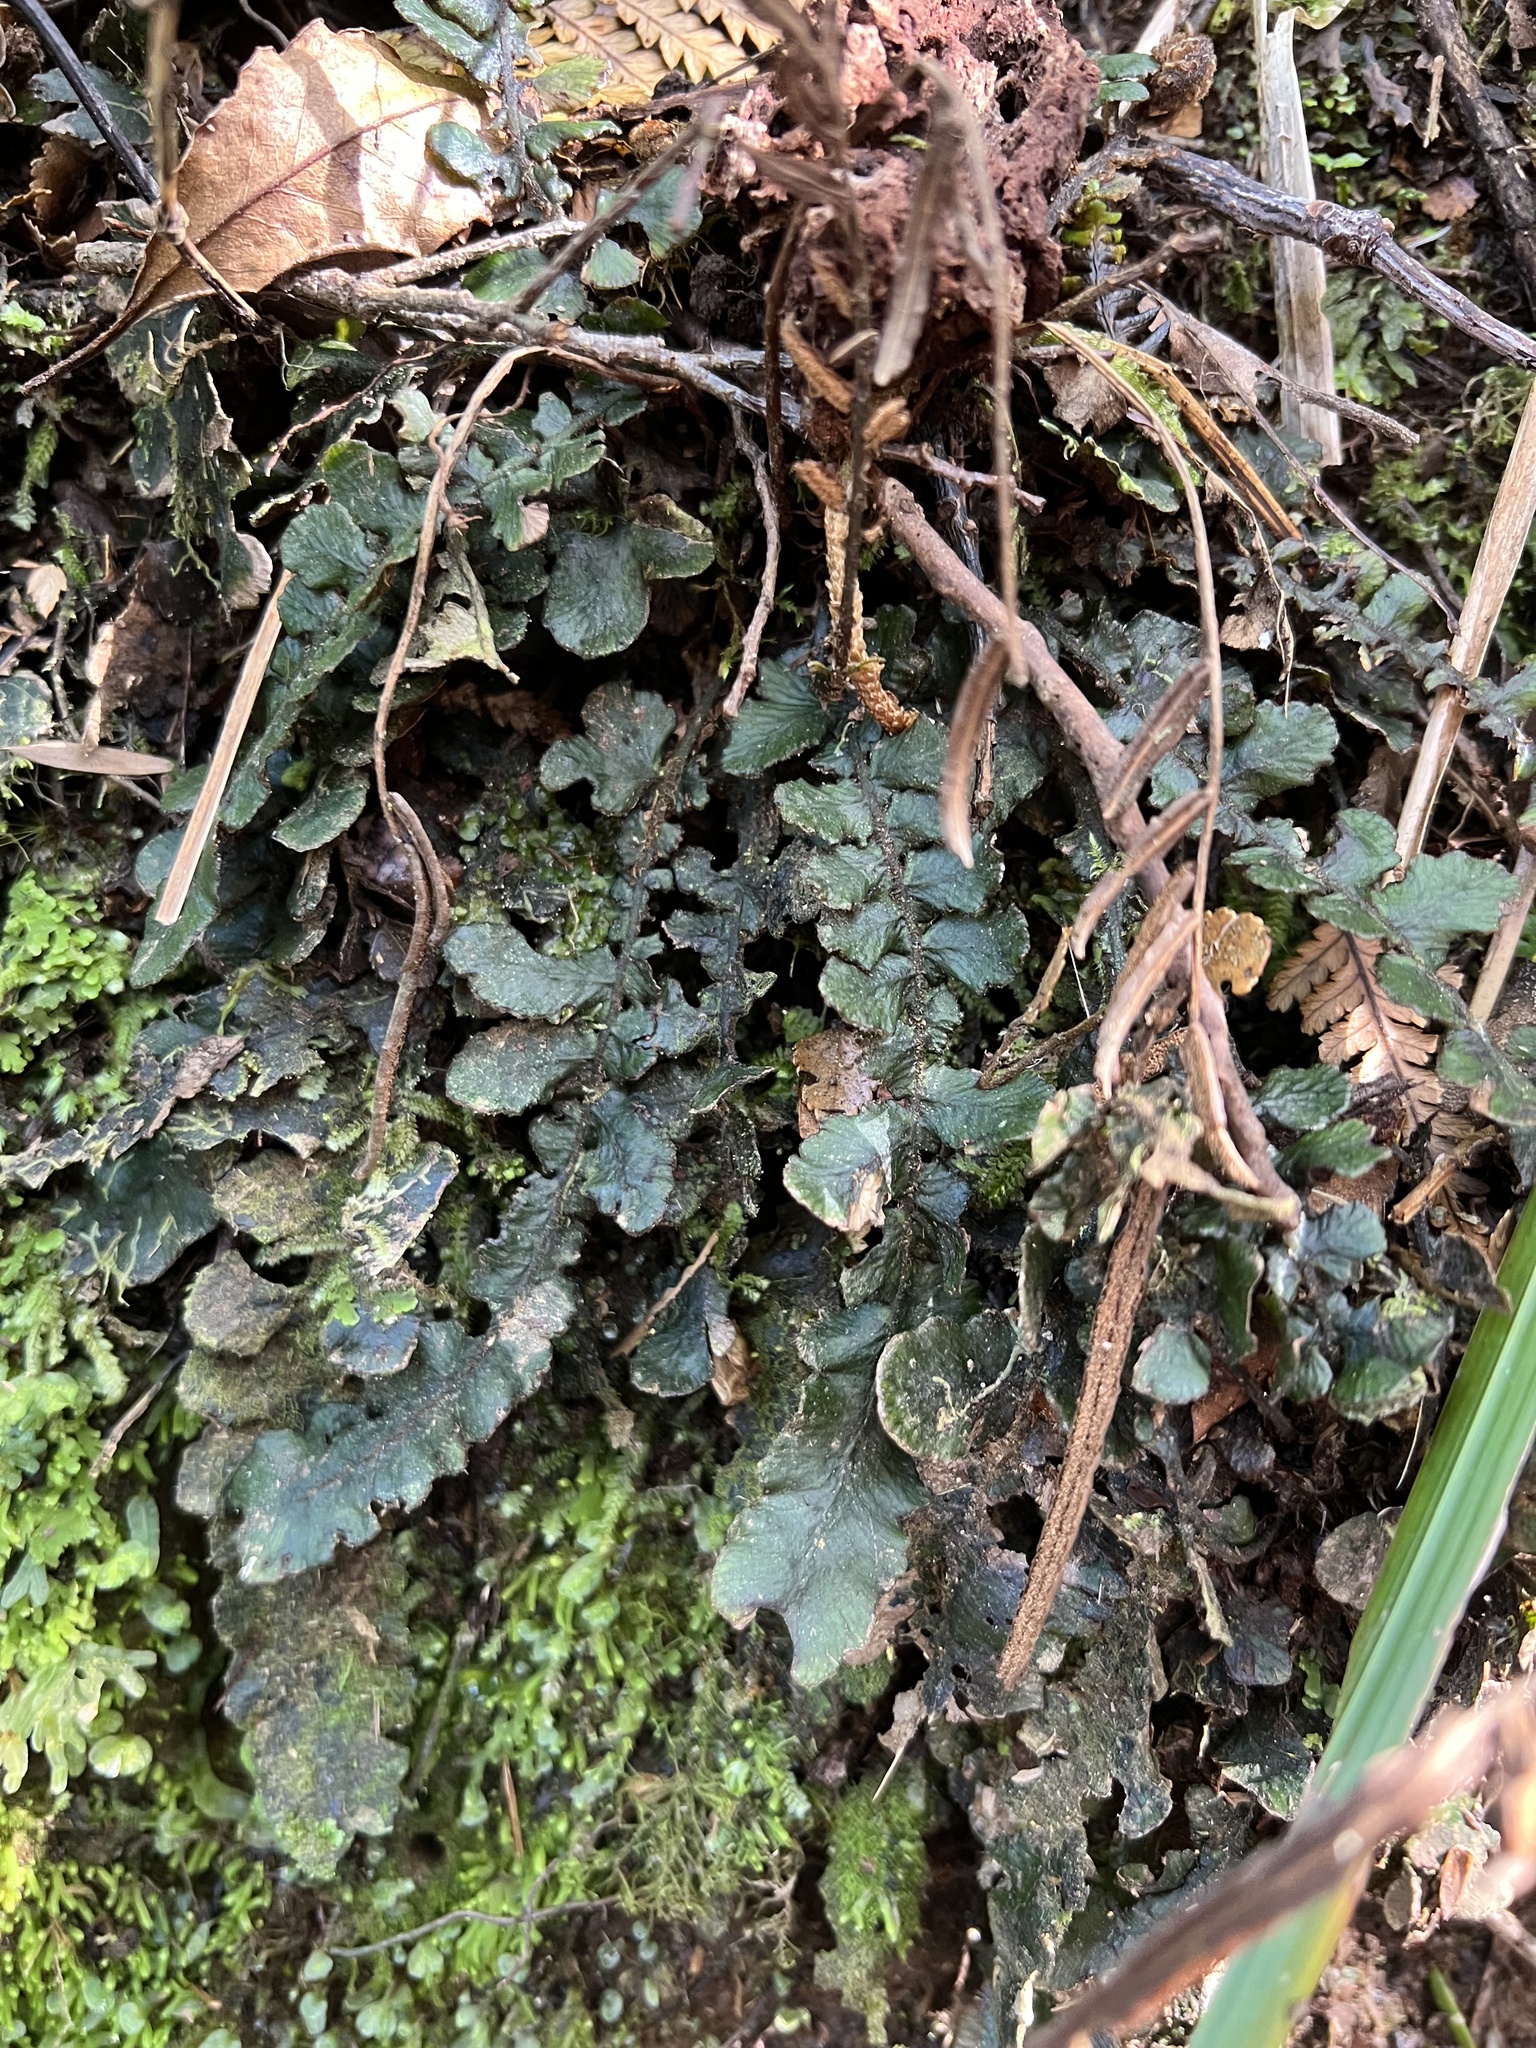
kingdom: Plantae
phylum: Tracheophyta
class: Polypodiopsida
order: Polypodiales
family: Blechnaceae
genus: Cranfillia
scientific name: Cranfillia nigra
